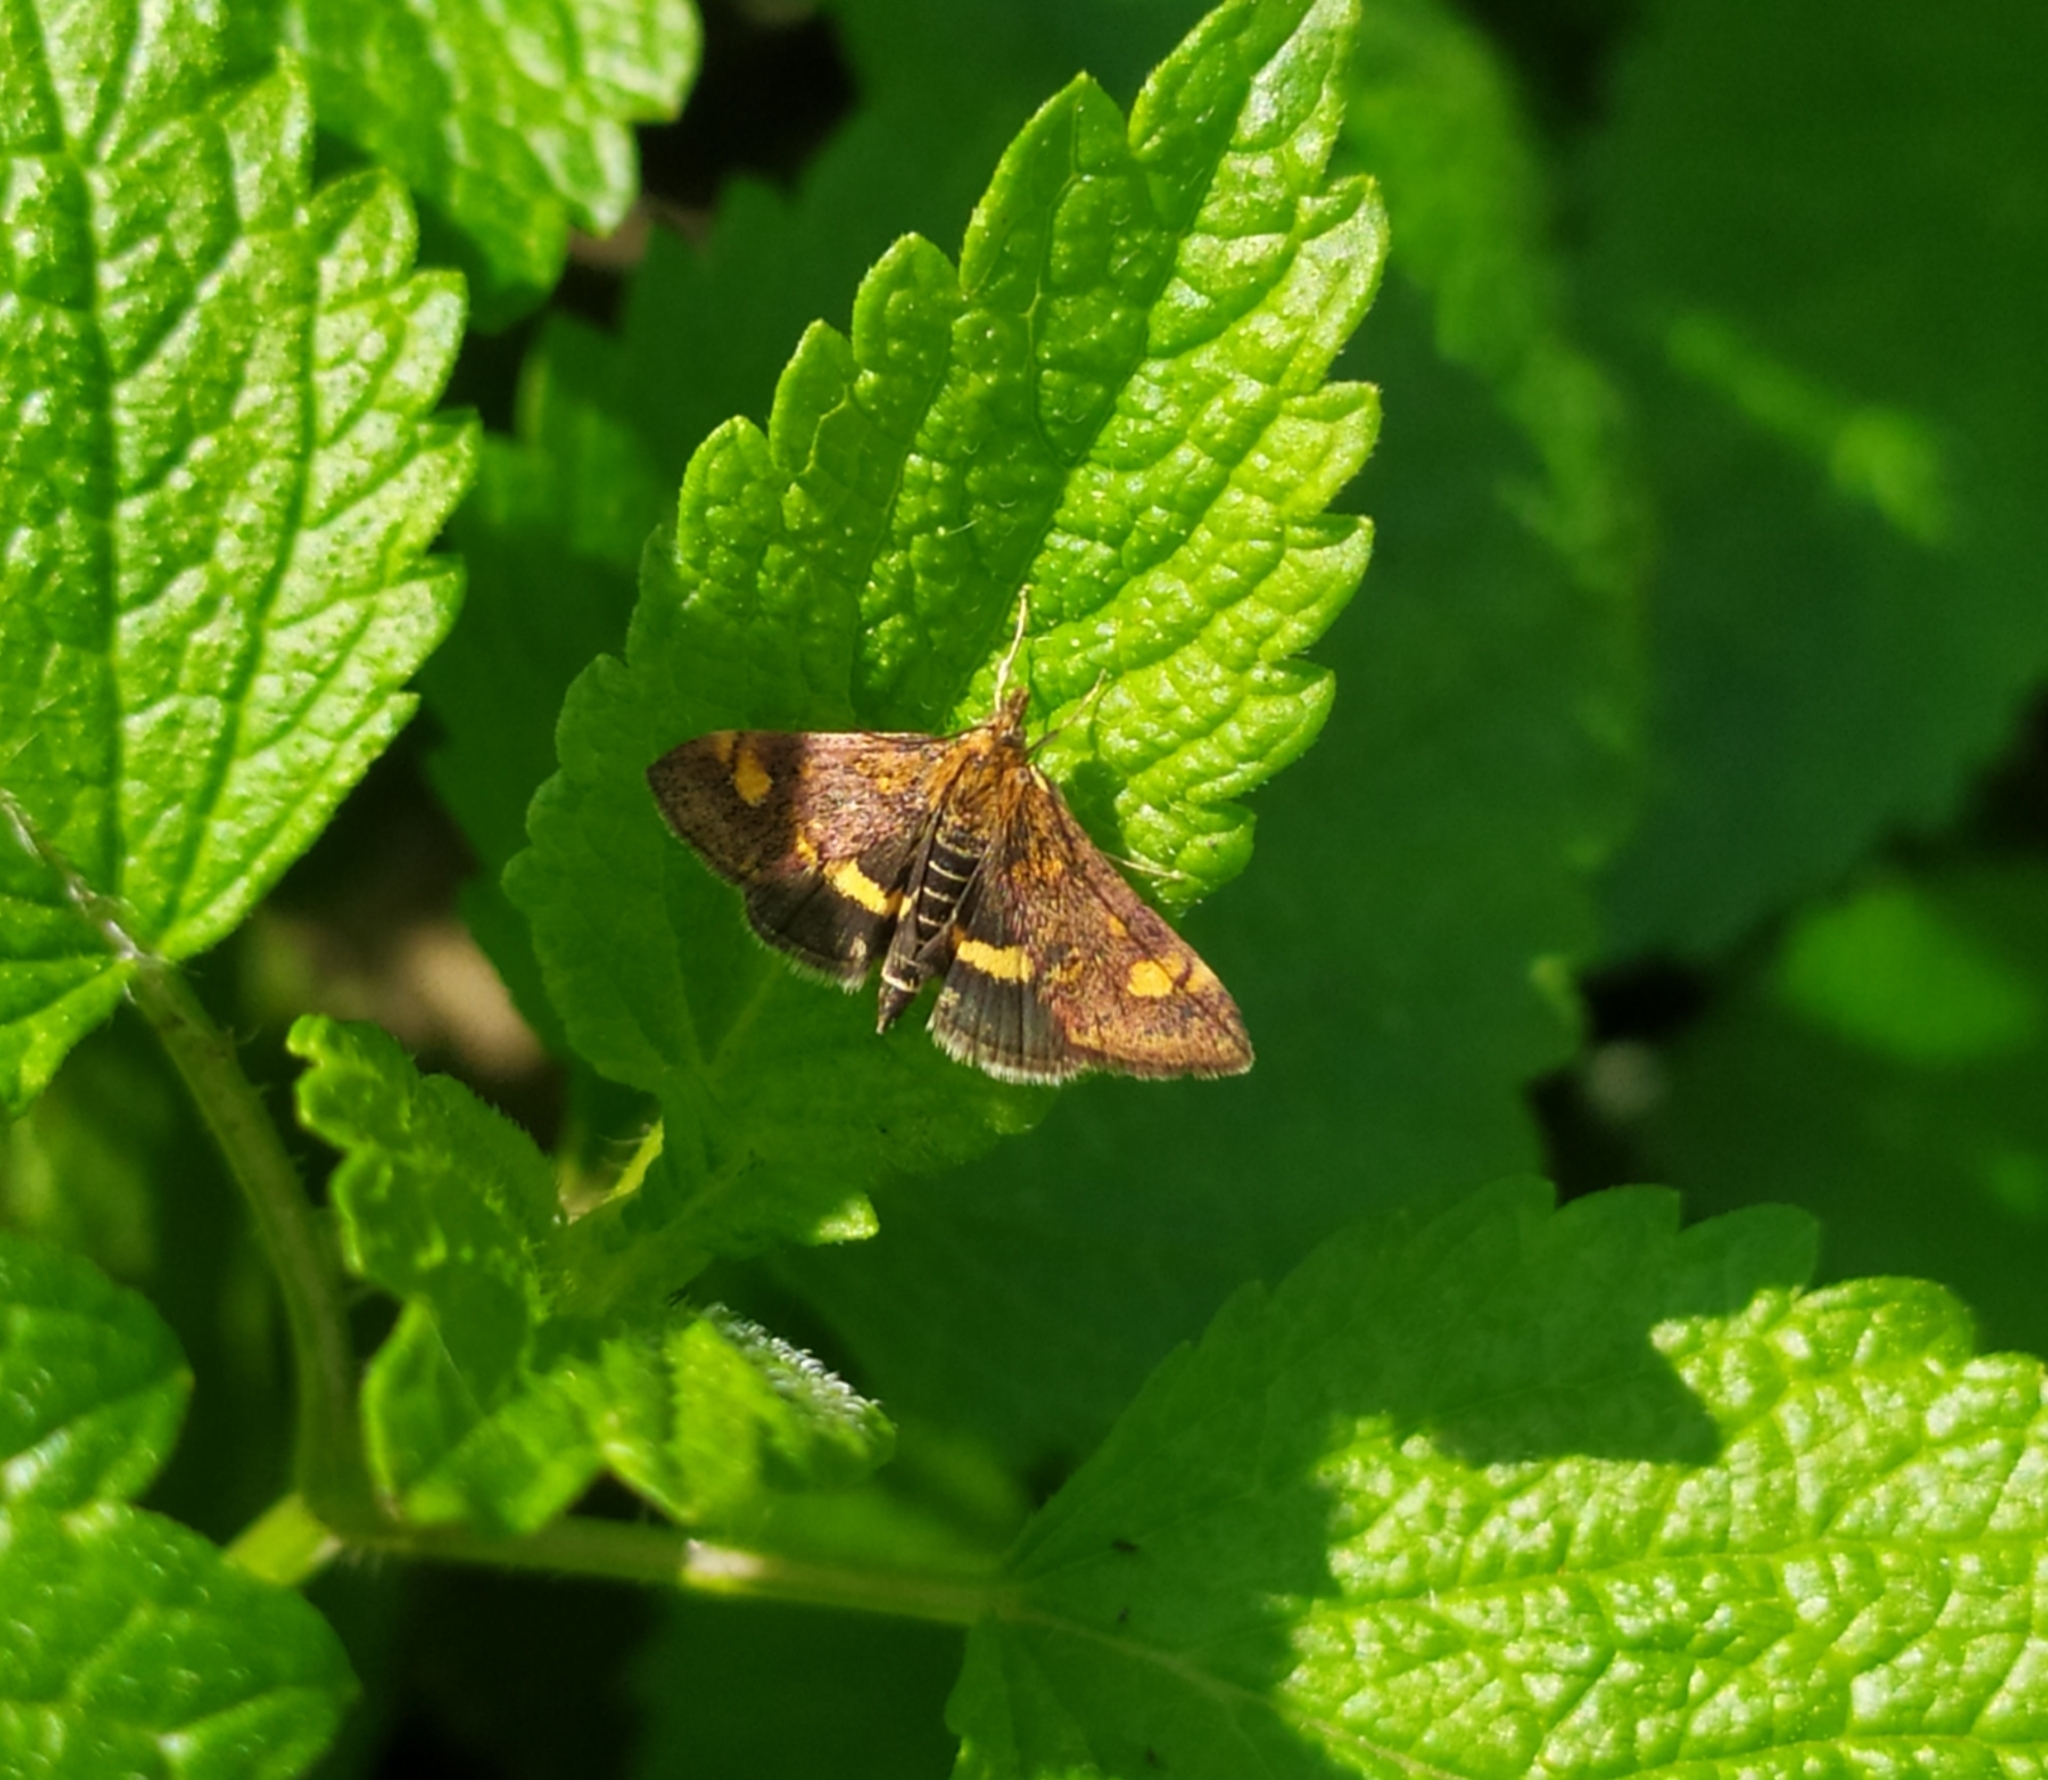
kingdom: Animalia
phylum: Arthropoda
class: Insecta
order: Lepidoptera
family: Crambidae
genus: Pyrausta
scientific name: Pyrausta aurata
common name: Small purple & gold
